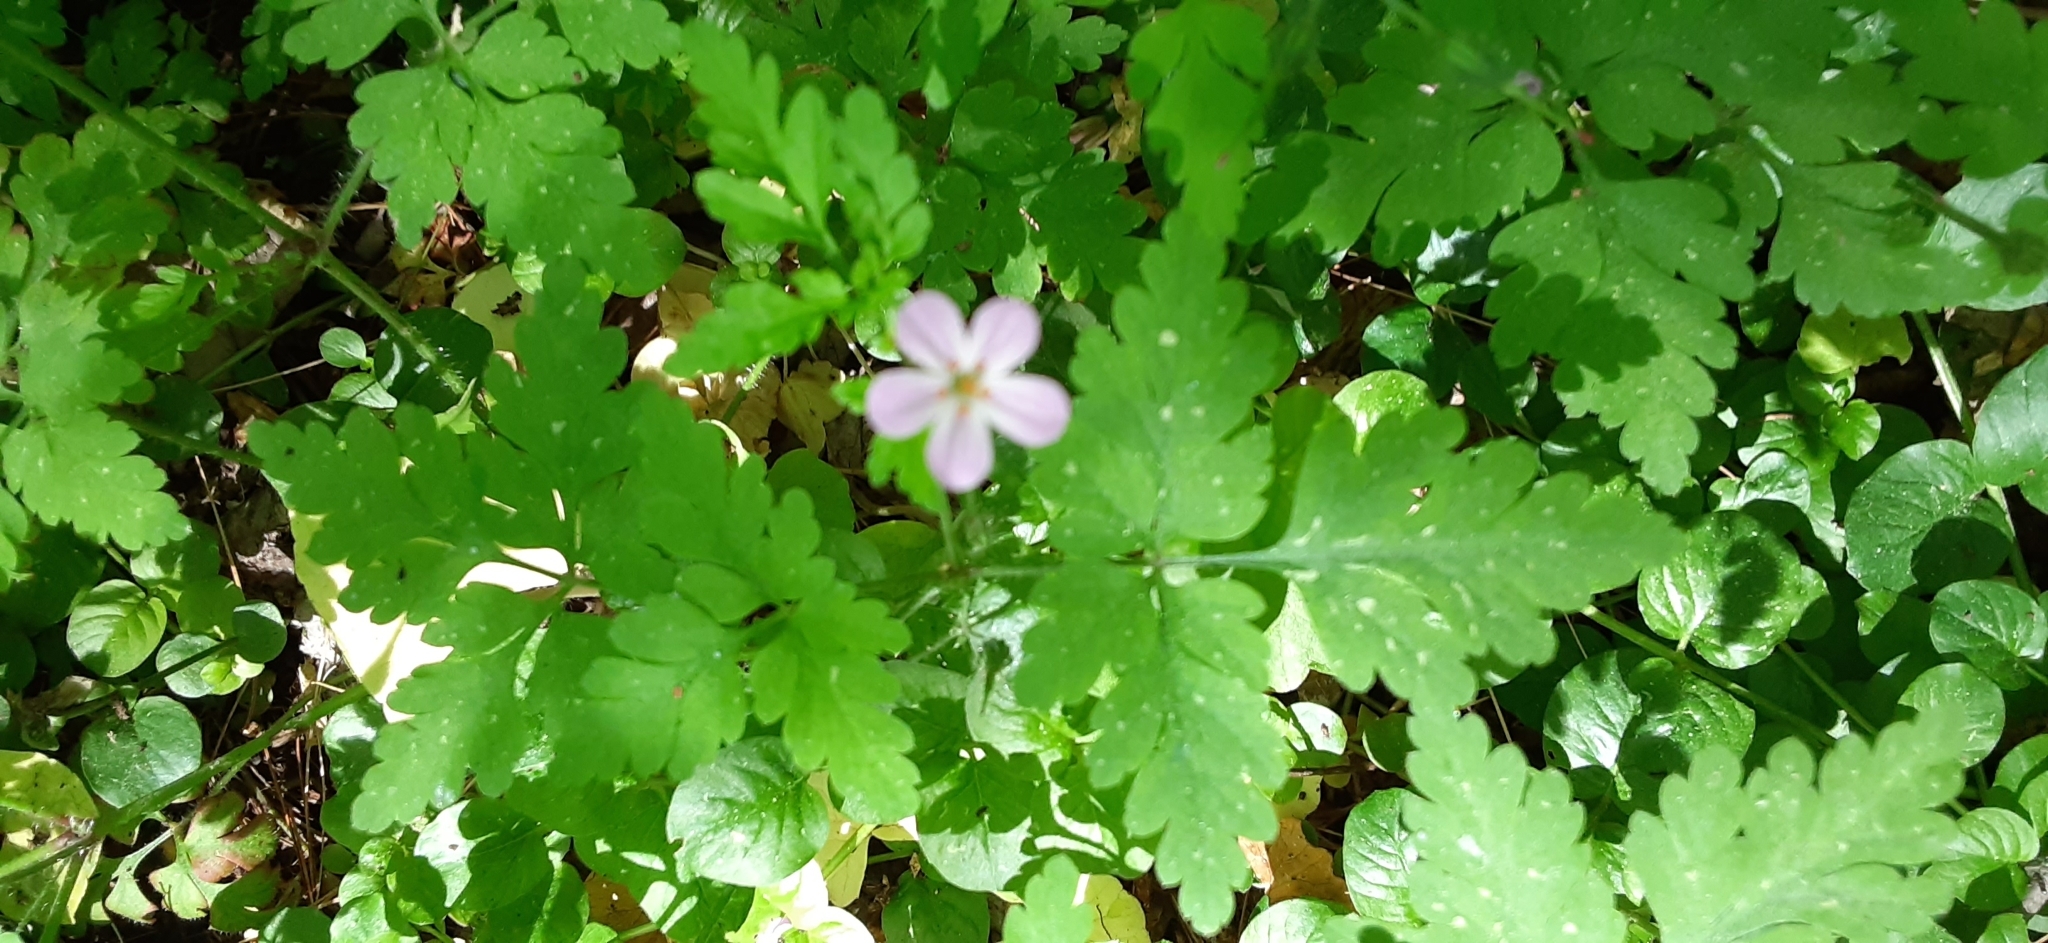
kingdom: Plantae
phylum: Tracheophyta
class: Magnoliopsida
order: Geraniales
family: Geraniaceae
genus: Geranium
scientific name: Geranium robertianum
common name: Herb-robert
